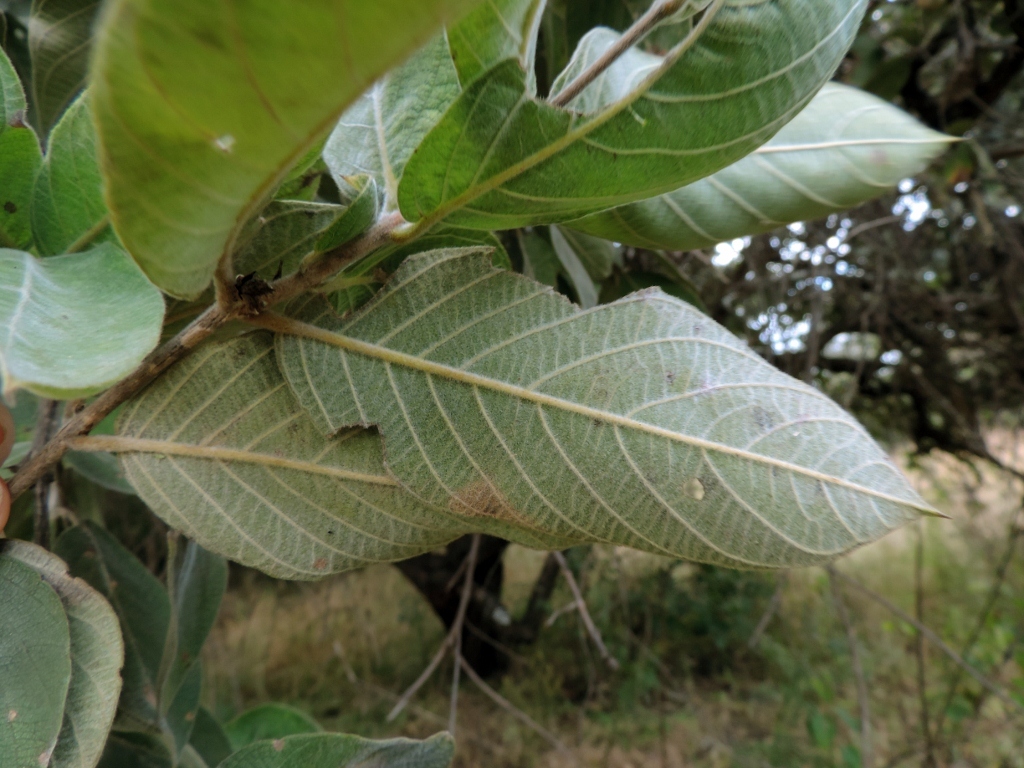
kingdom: Plantae
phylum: Tracheophyta
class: Magnoliopsida
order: Myrtales
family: Combretaceae
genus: Combretum
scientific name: Combretum molle
